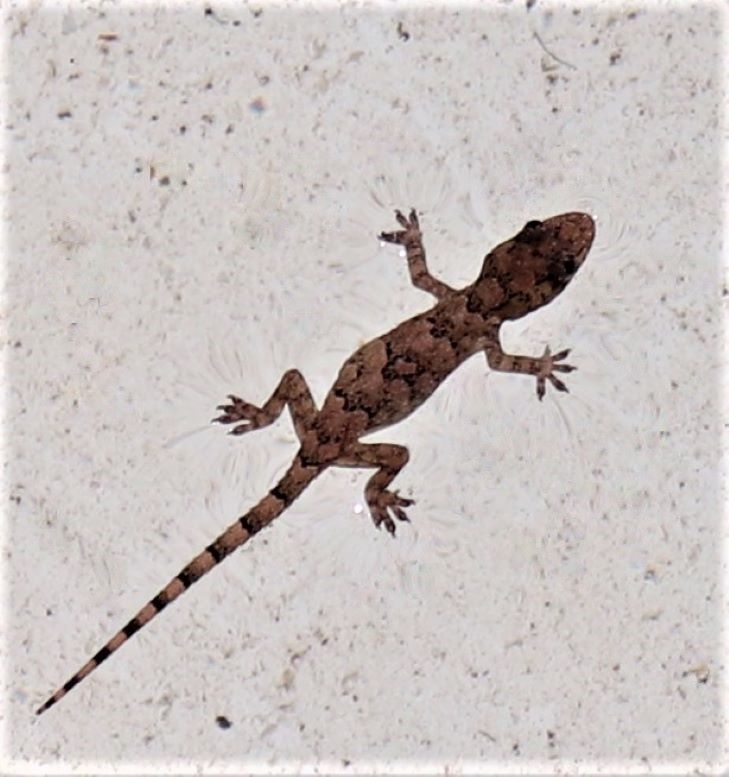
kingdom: Animalia
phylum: Chordata
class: Squamata
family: Gekkonidae
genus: Hemidactylus
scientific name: Hemidactylus mabouia
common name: House gecko
